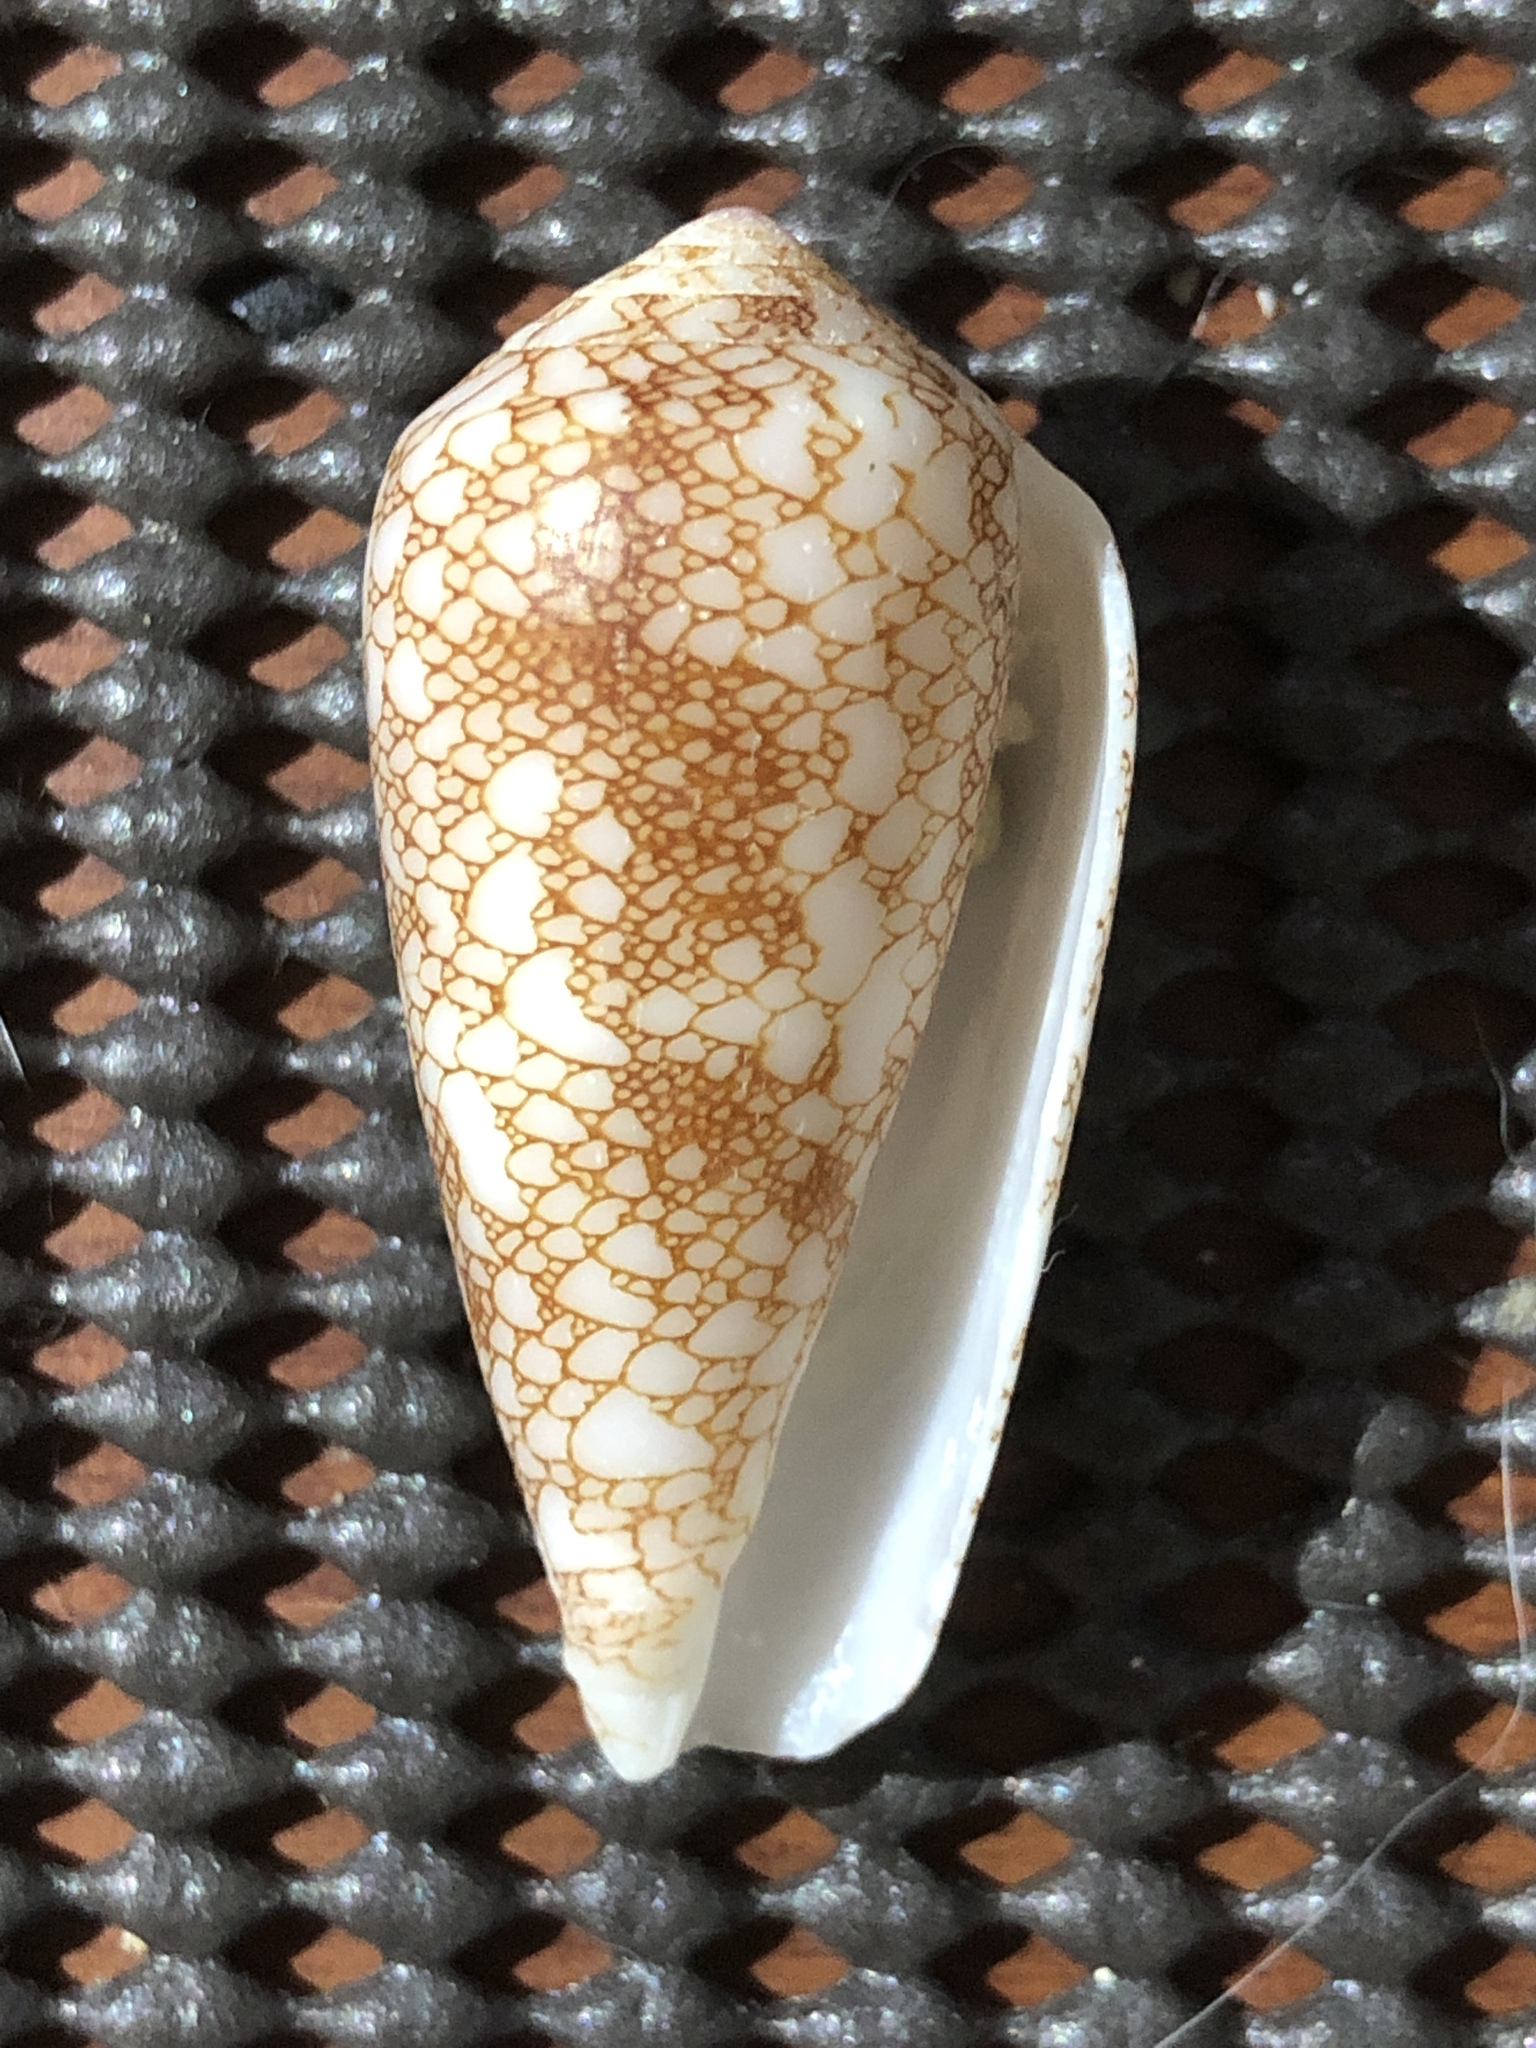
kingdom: Animalia
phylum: Mollusca
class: Gastropoda
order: Neogastropoda
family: Conidae
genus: Conus
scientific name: Conus omaria
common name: Omaria cone
